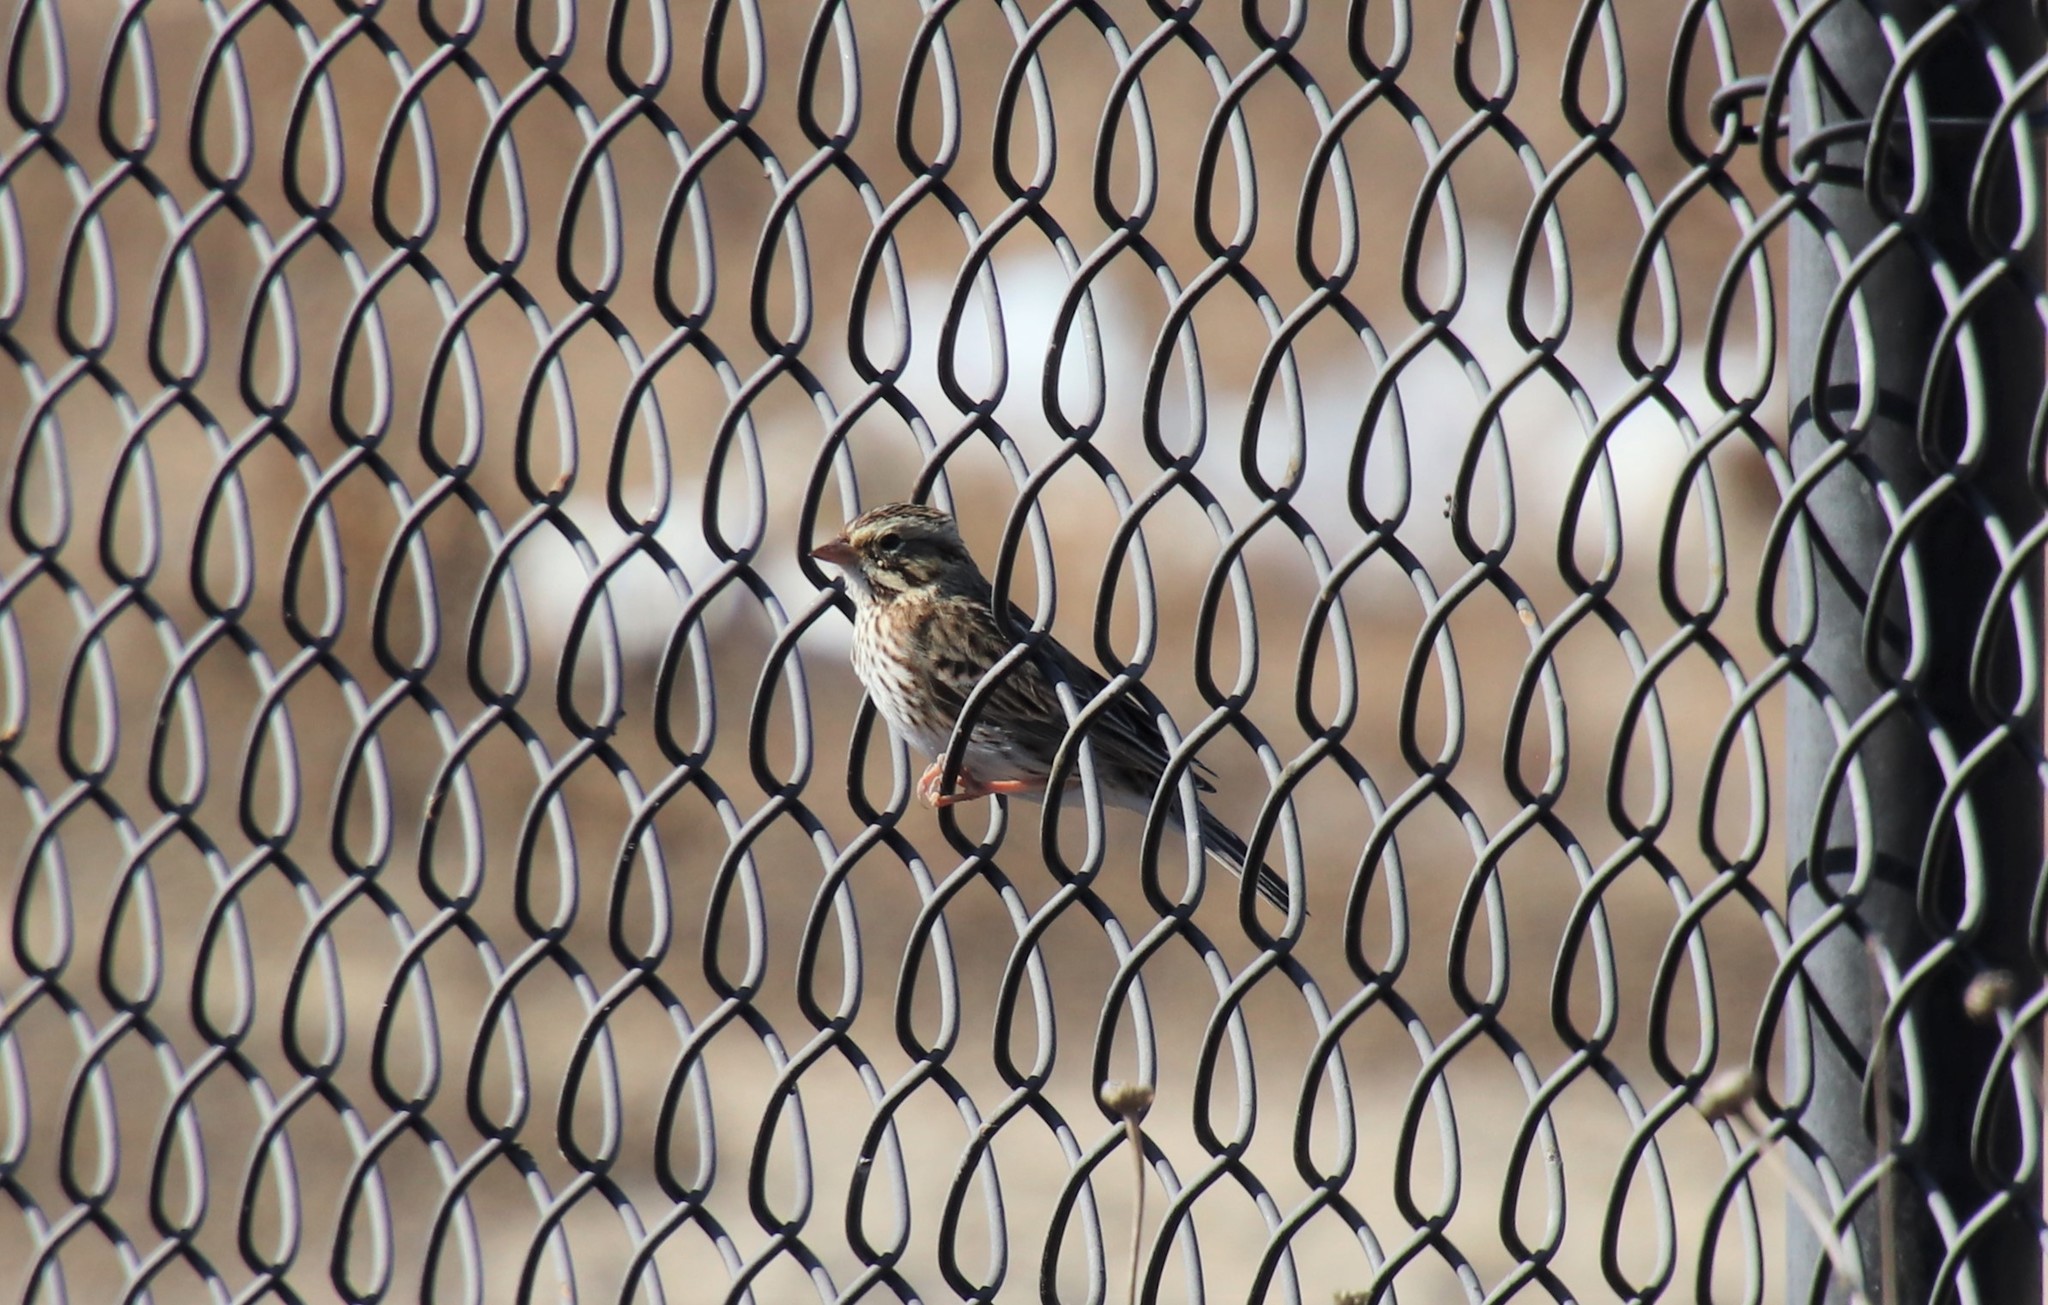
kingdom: Animalia
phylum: Chordata
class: Aves
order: Passeriformes
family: Passerellidae
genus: Passerculus
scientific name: Passerculus sandwichensis
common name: Savannah sparrow
